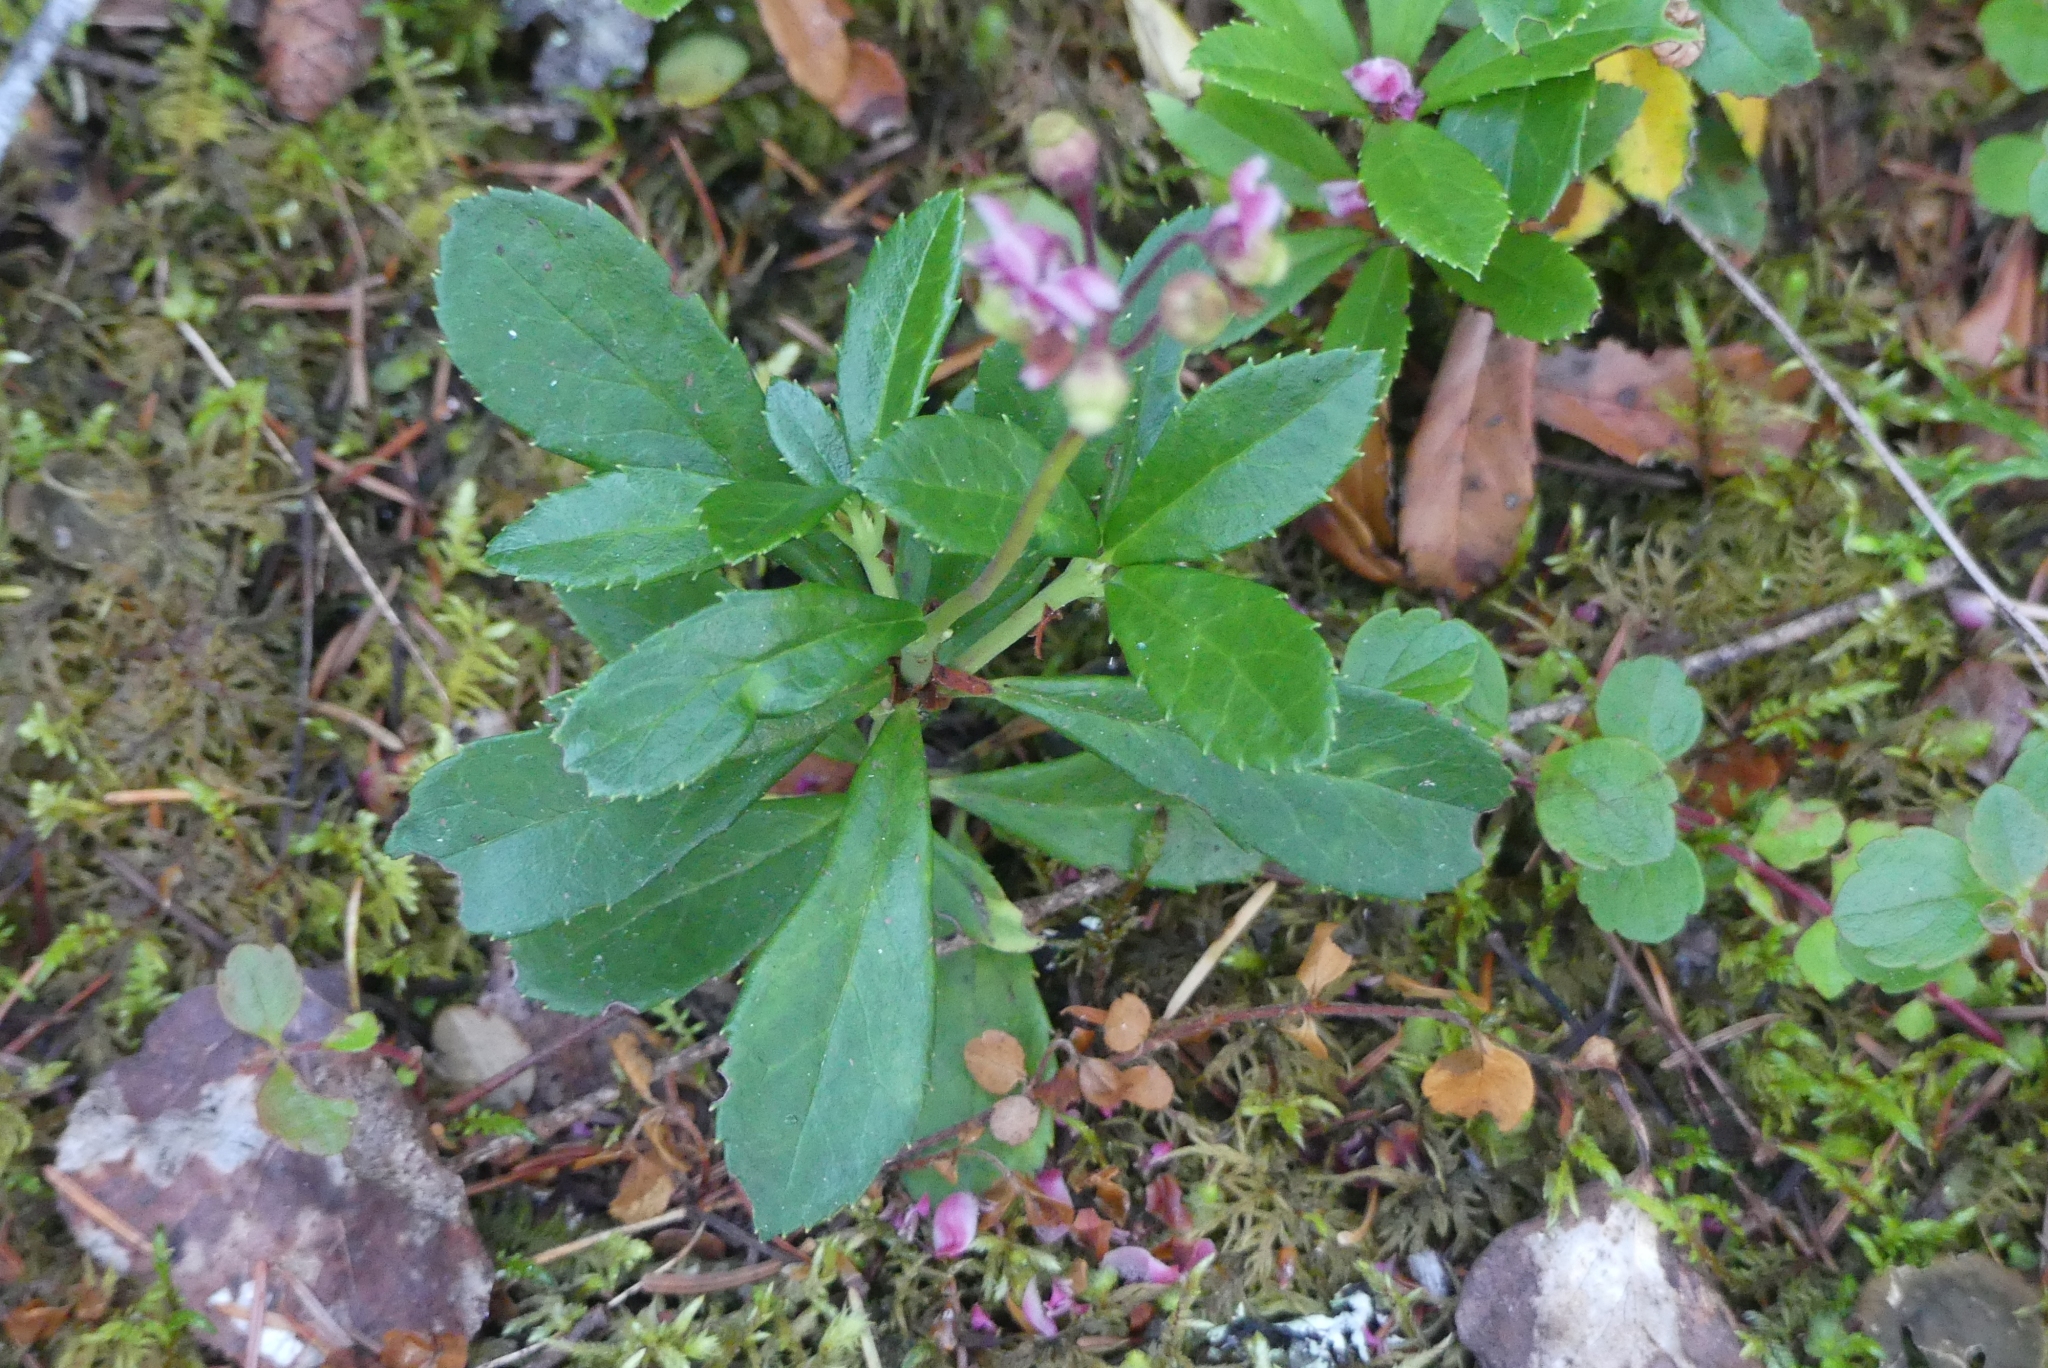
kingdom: Plantae
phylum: Tracheophyta
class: Magnoliopsida
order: Ericales
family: Ericaceae
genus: Chimaphila
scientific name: Chimaphila umbellata
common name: Pipsissewa
